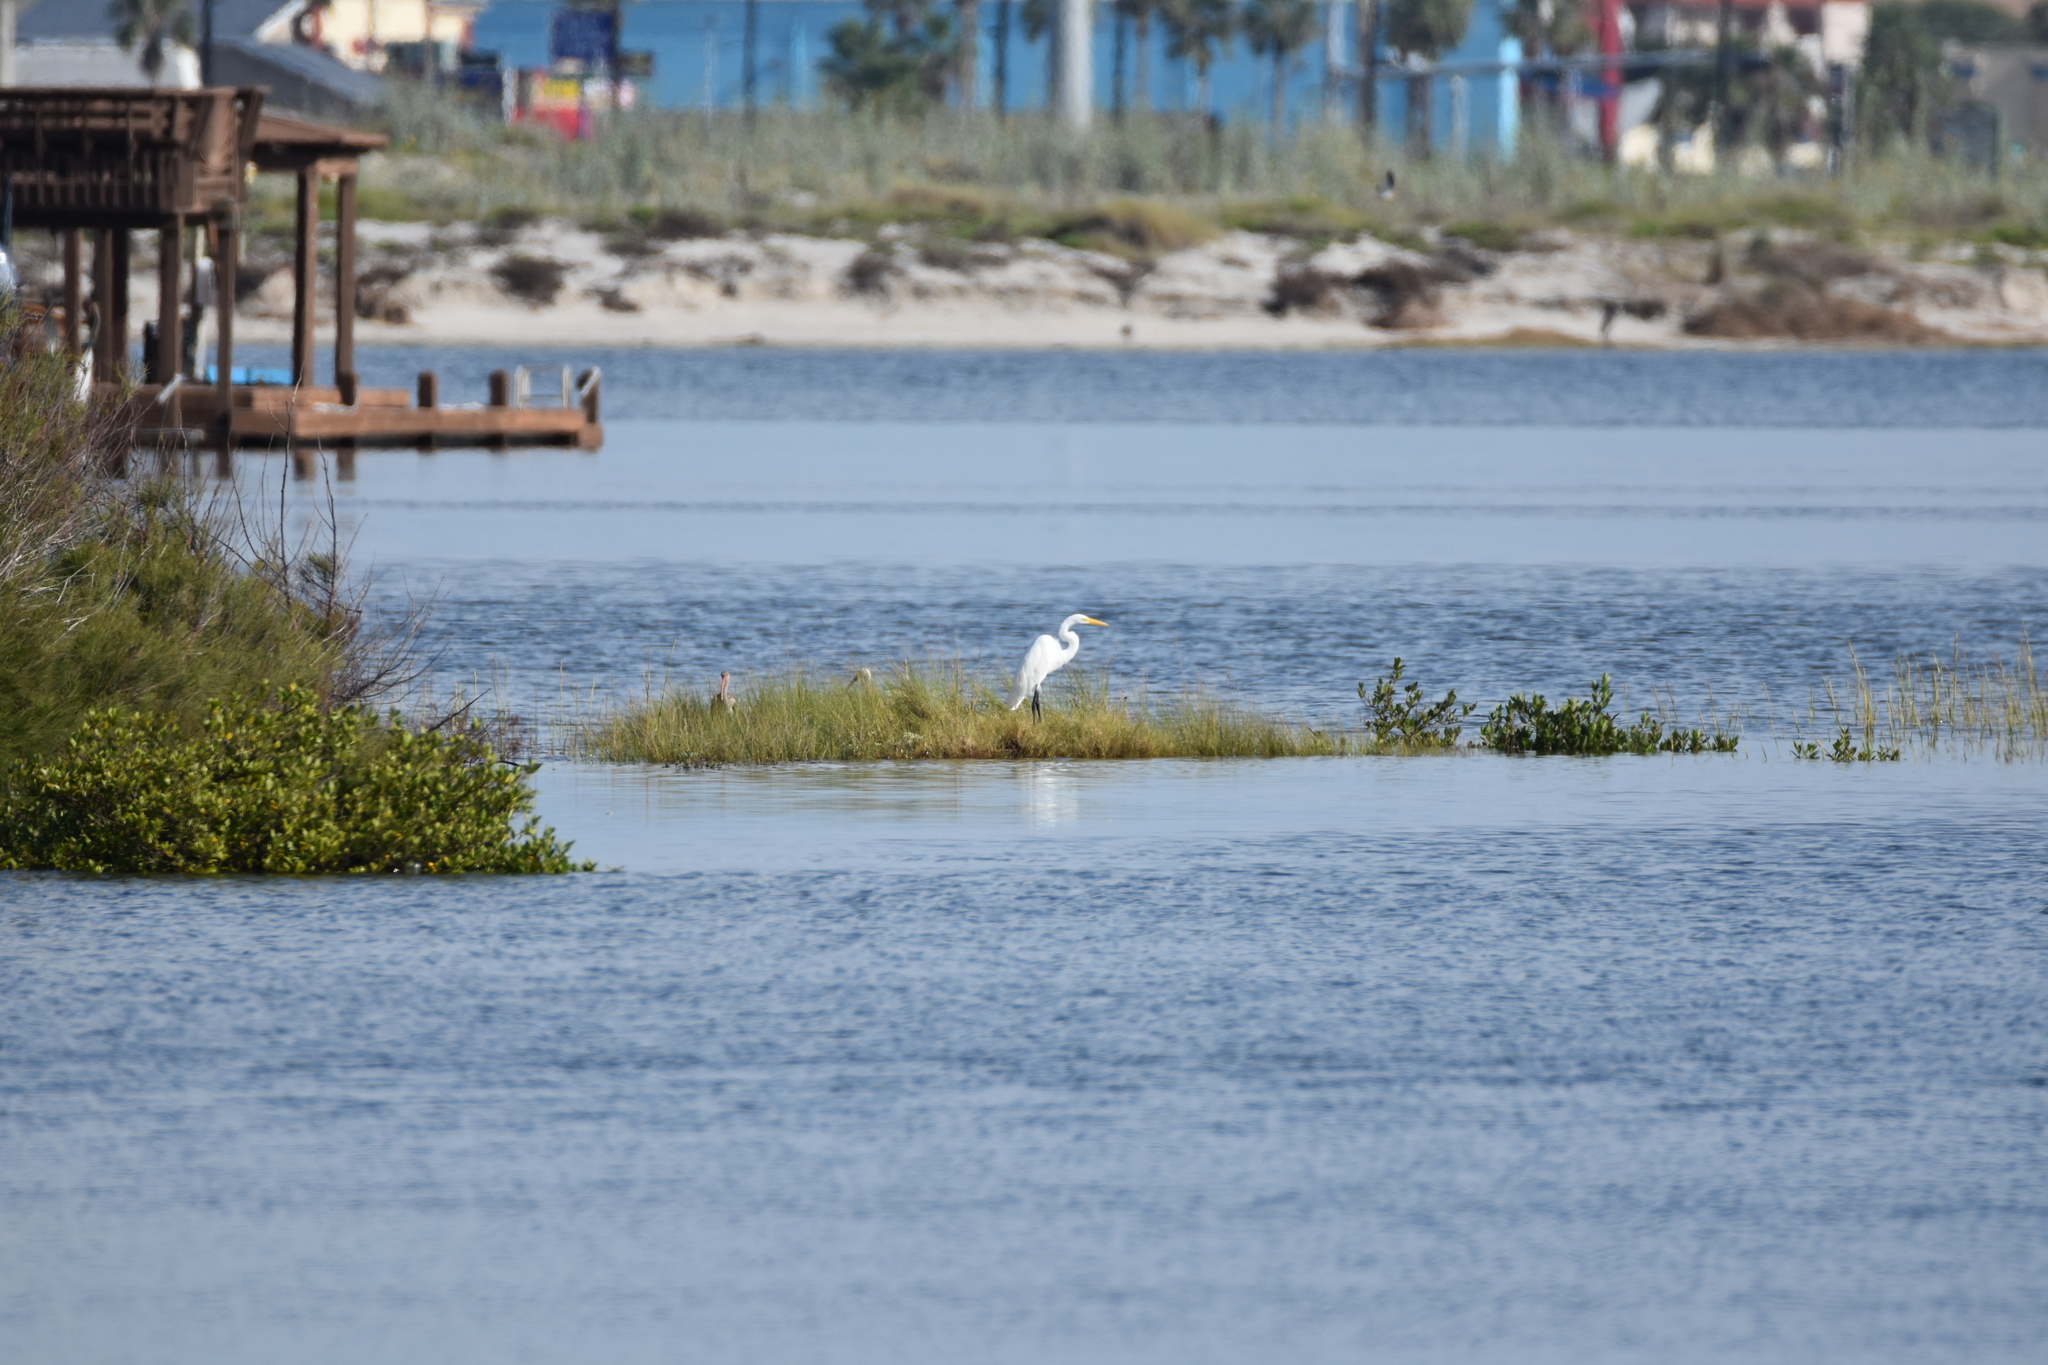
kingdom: Animalia
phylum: Chordata
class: Aves
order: Pelecaniformes
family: Threskiornithidae
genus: Eudocimus
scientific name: Eudocimus albus
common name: White ibis
